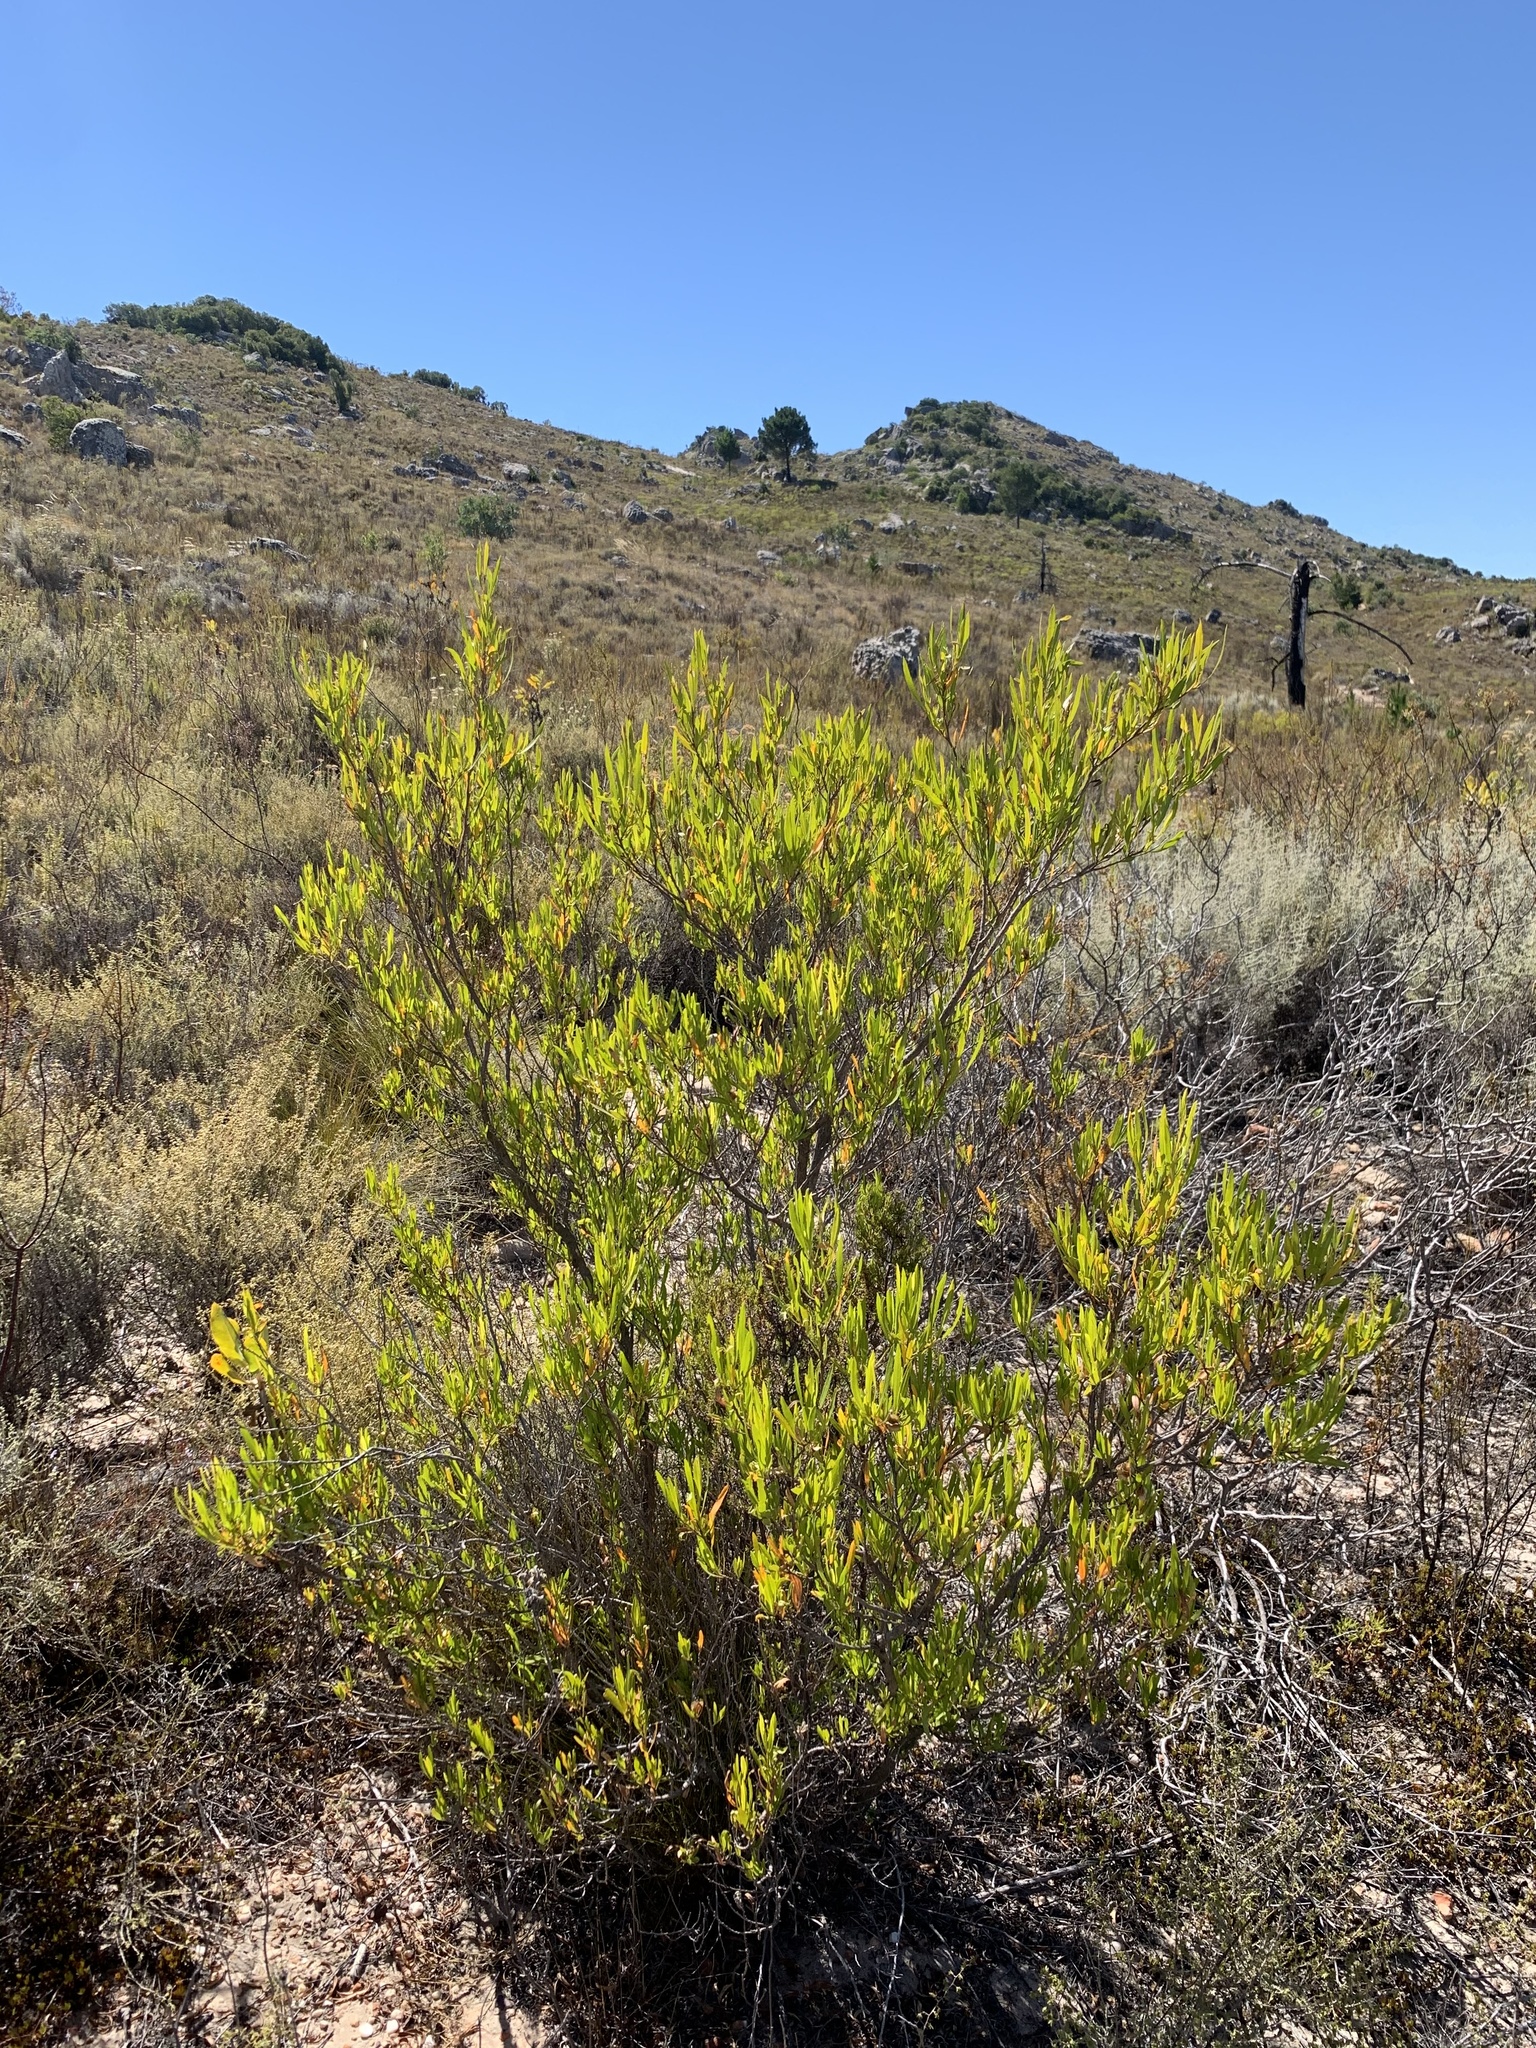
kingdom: Plantae
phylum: Tracheophyta
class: Magnoliopsida
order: Sapindales
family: Sapindaceae
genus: Dodonaea
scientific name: Dodonaea viscosa
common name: Hopbush
